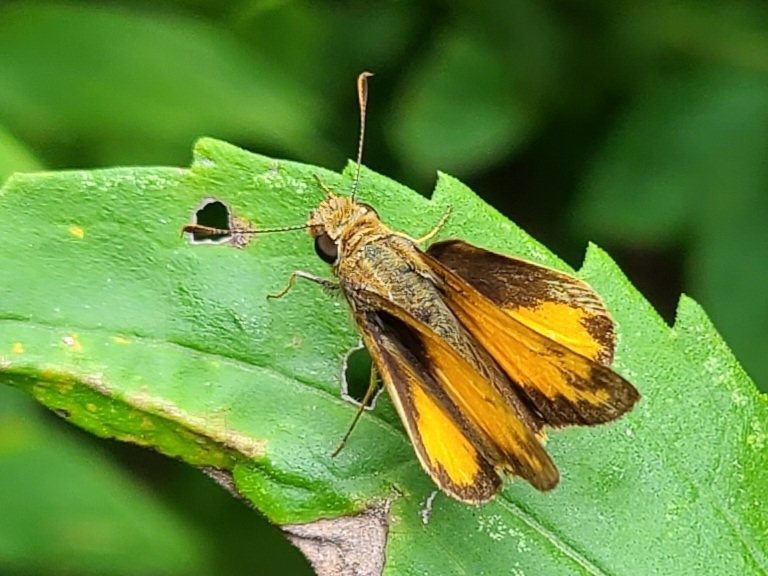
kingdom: Animalia
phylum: Arthropoda
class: Insecta
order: Lepidoptera
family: Hesperiidae
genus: Lon
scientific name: Lon zabulon
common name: Zabulon skipper
